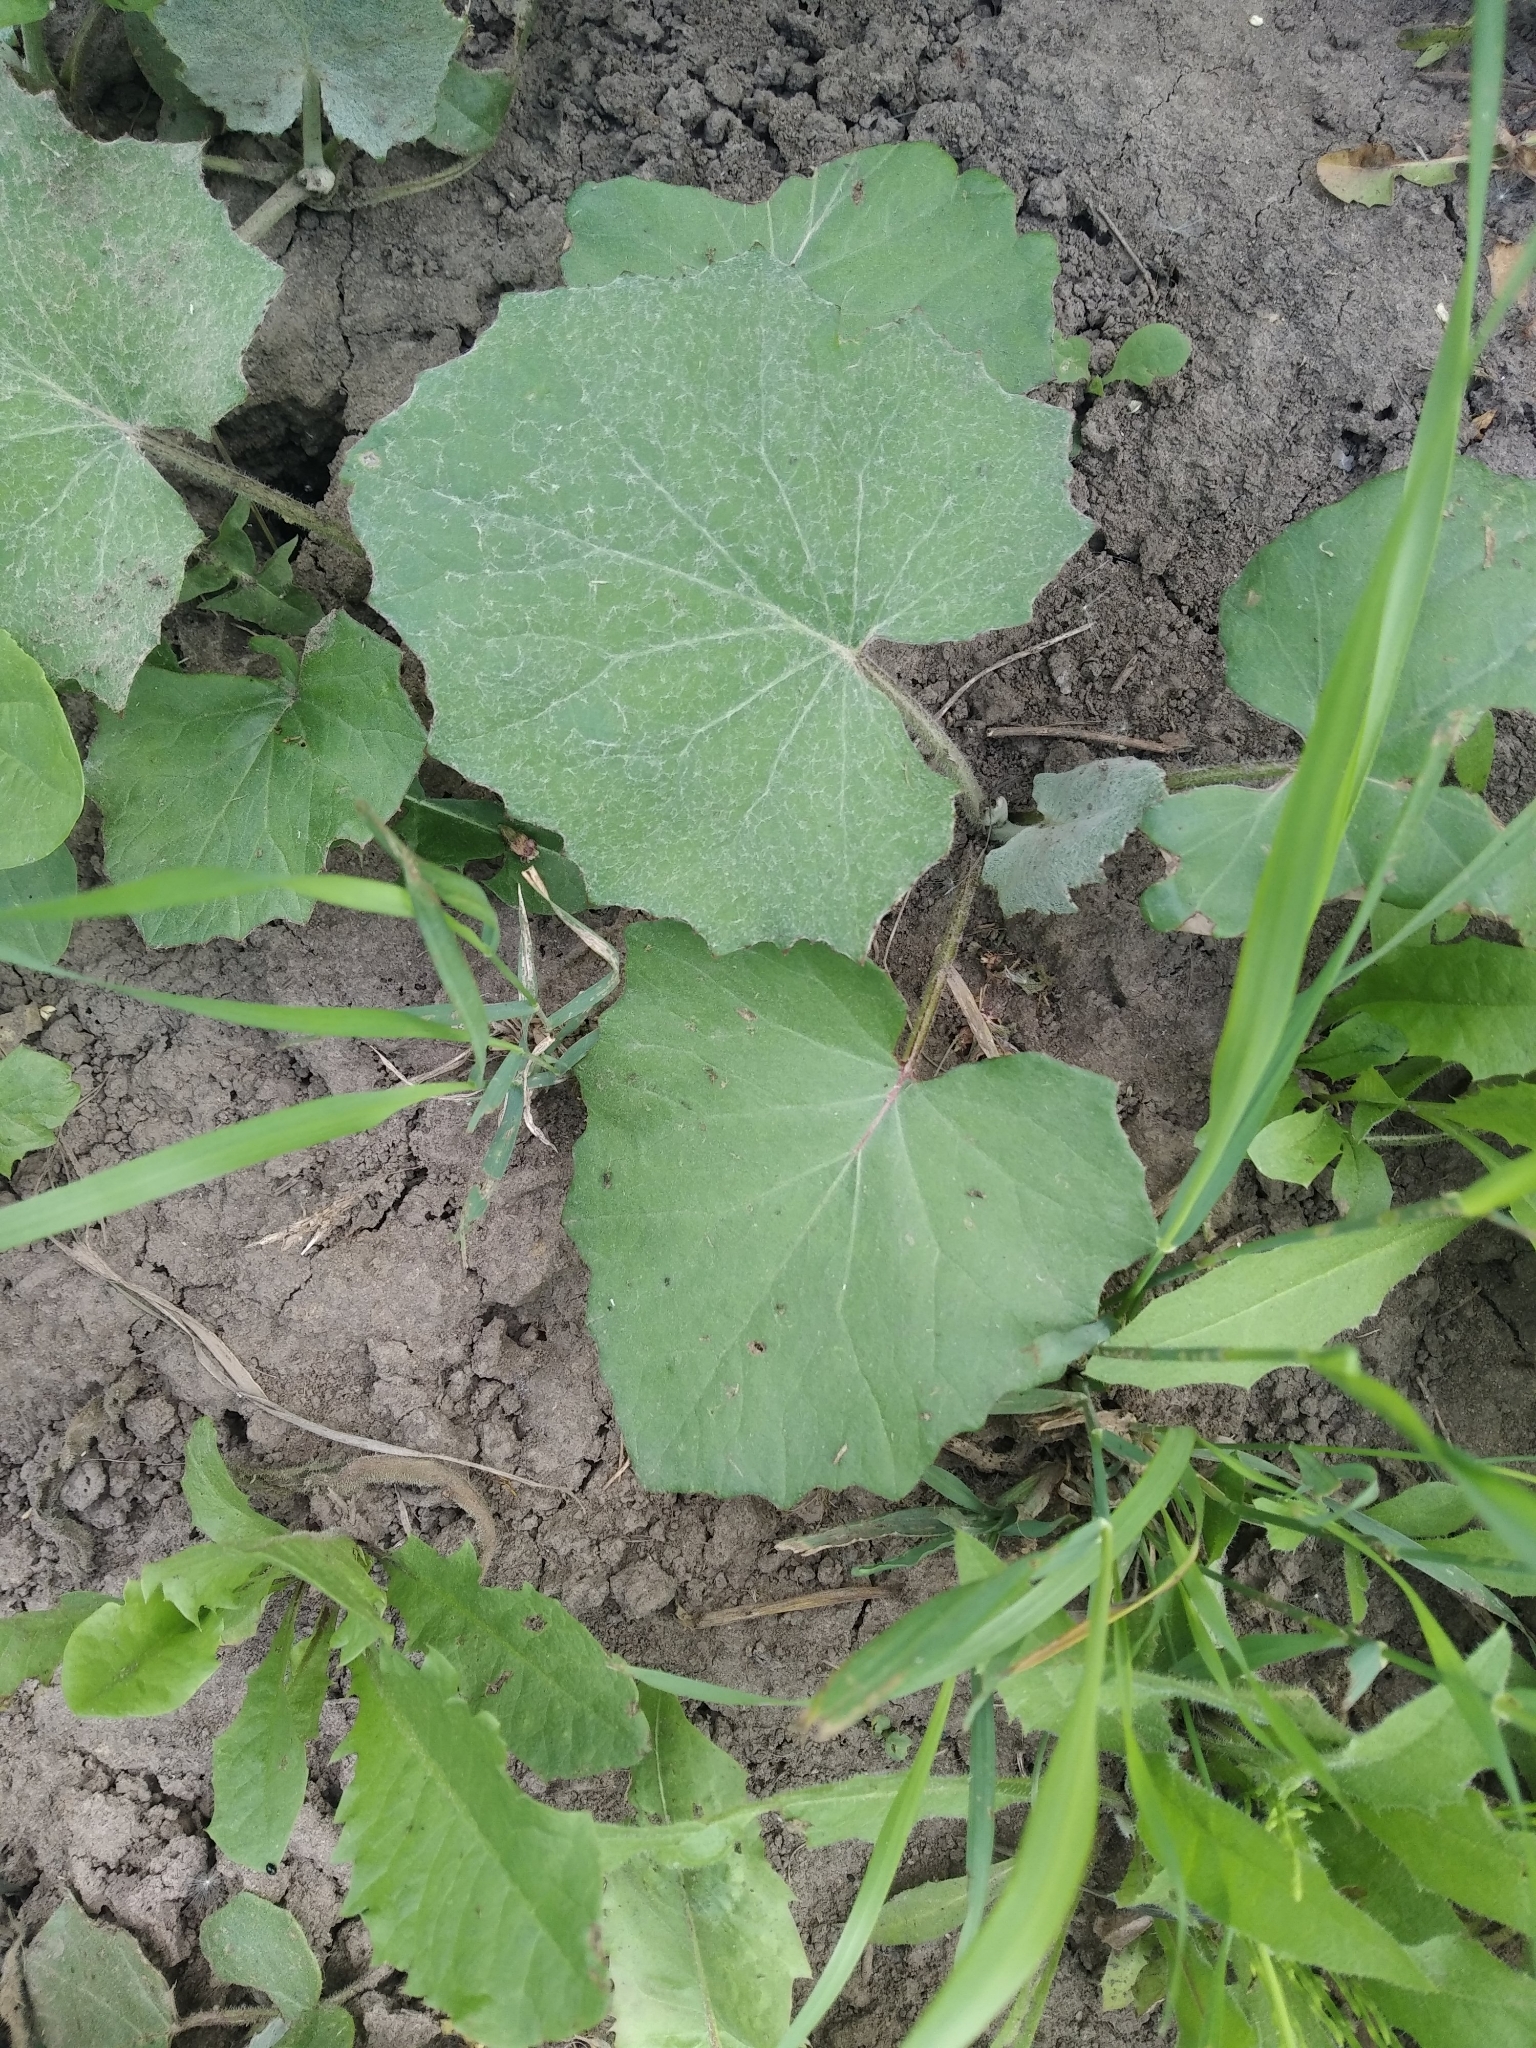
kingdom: Plantae
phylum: Tracheophyta
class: Magnoliopsida
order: Asterales
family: Asteraceae
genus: Tussilago
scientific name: Tussilago farfara
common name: Coltsfoot
